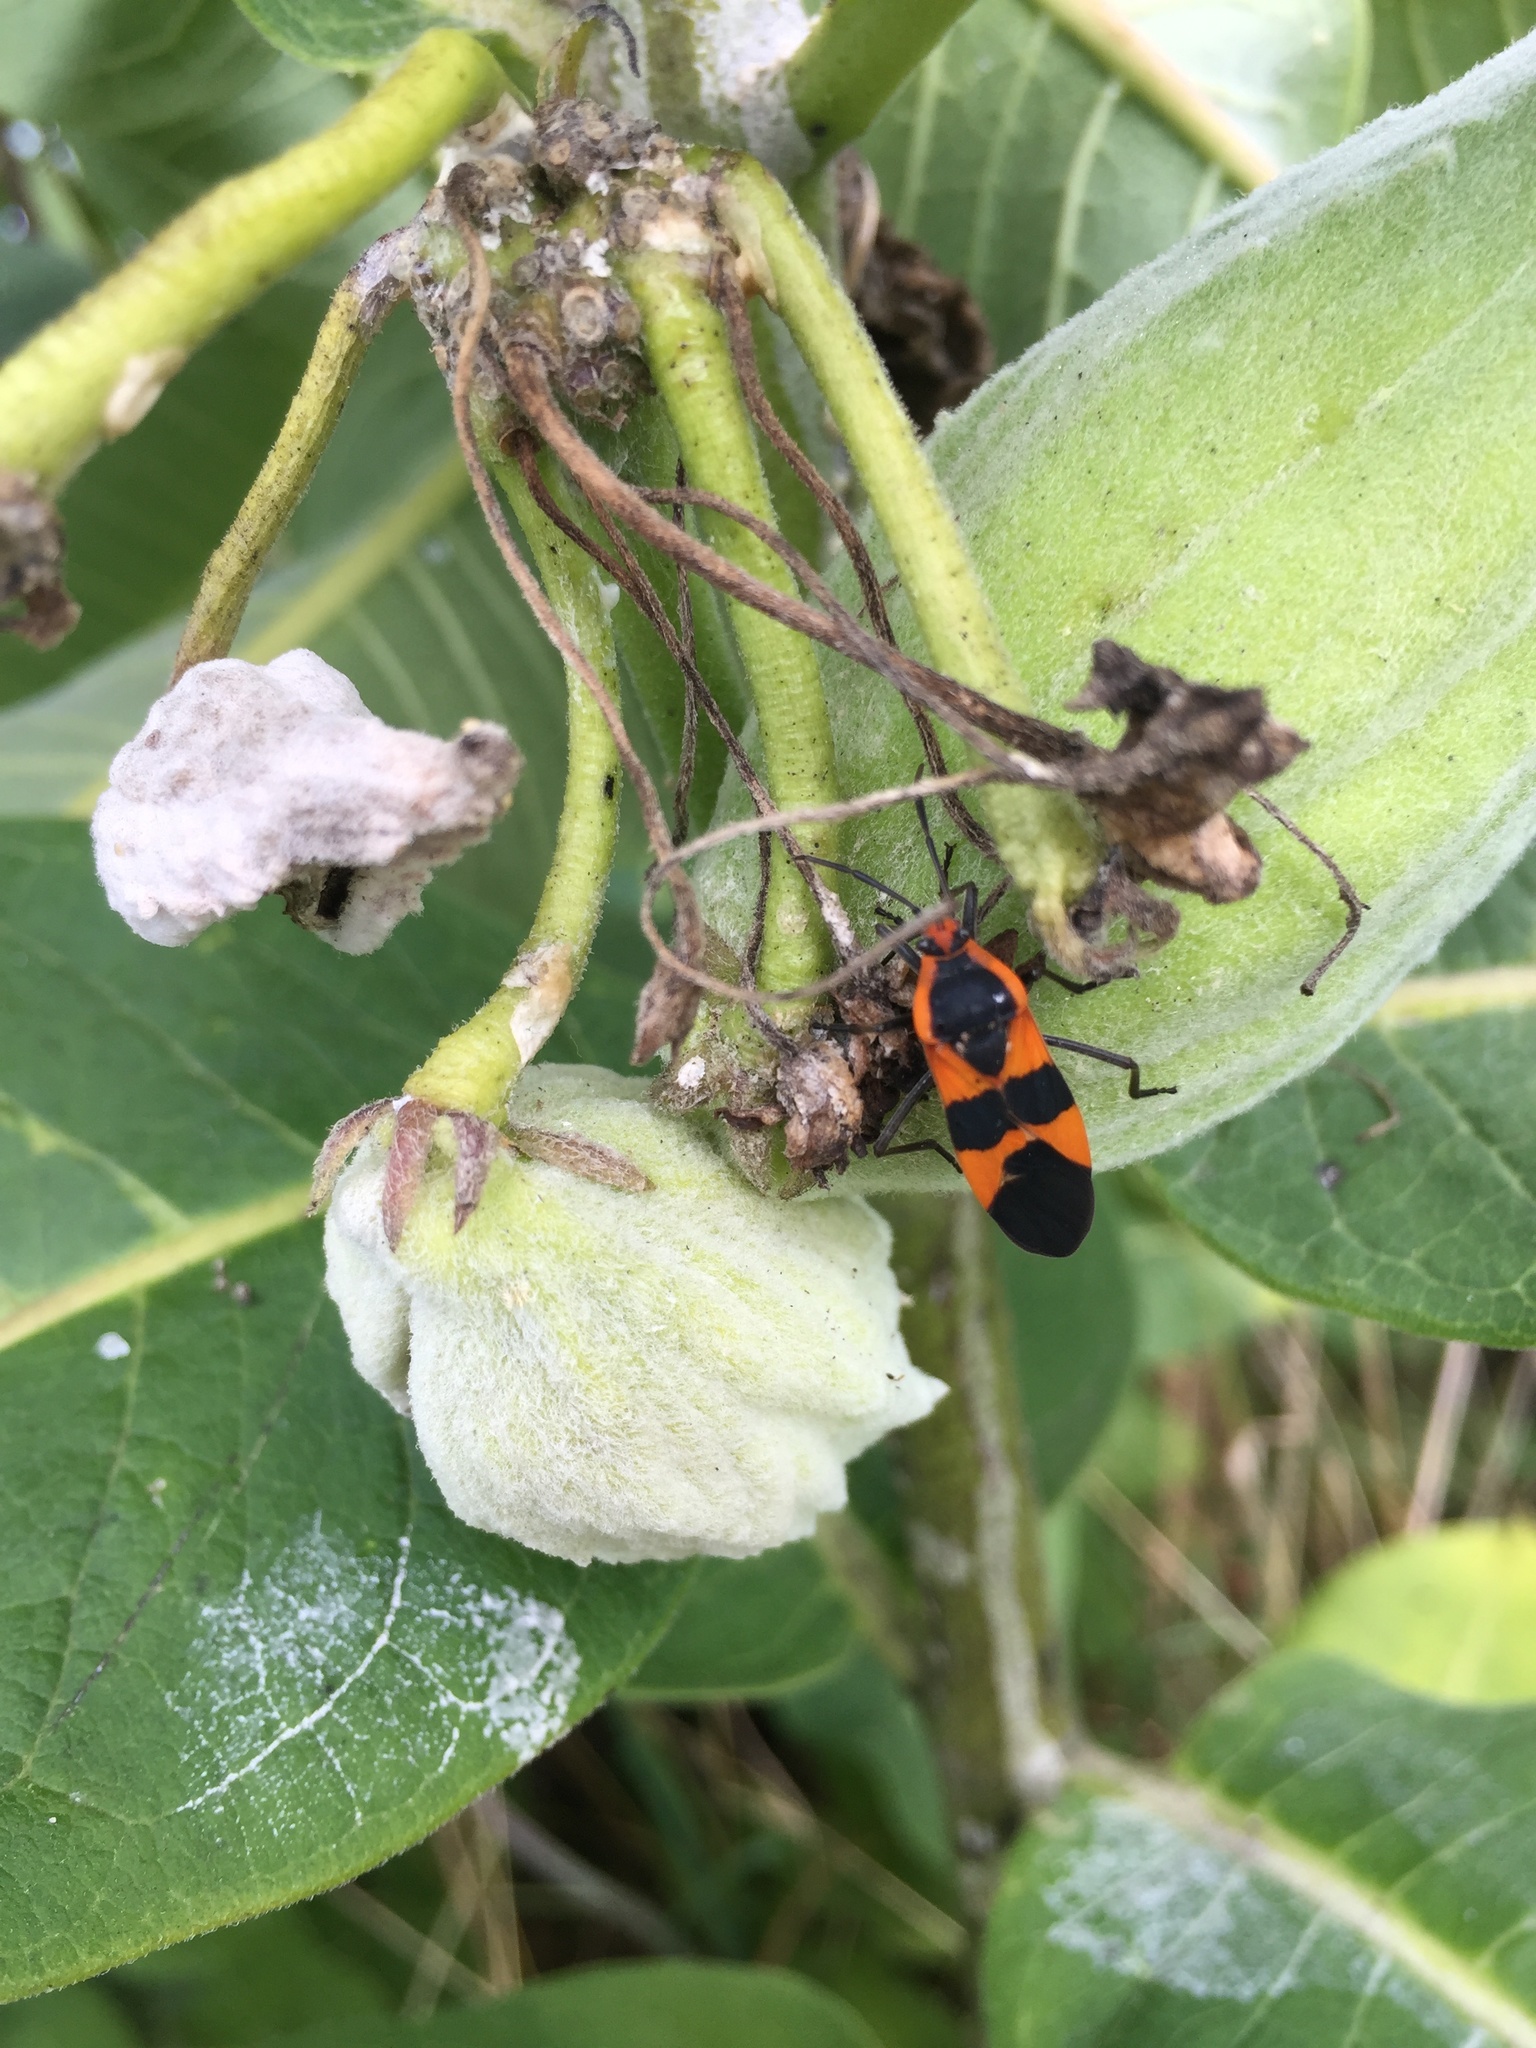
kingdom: Animalia
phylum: Arthropoda
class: Insecta
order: Hemiptera
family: Lygaeidae
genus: Oncopeltus
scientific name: Oncopeltus fasciatus
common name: Large milkweed bug
